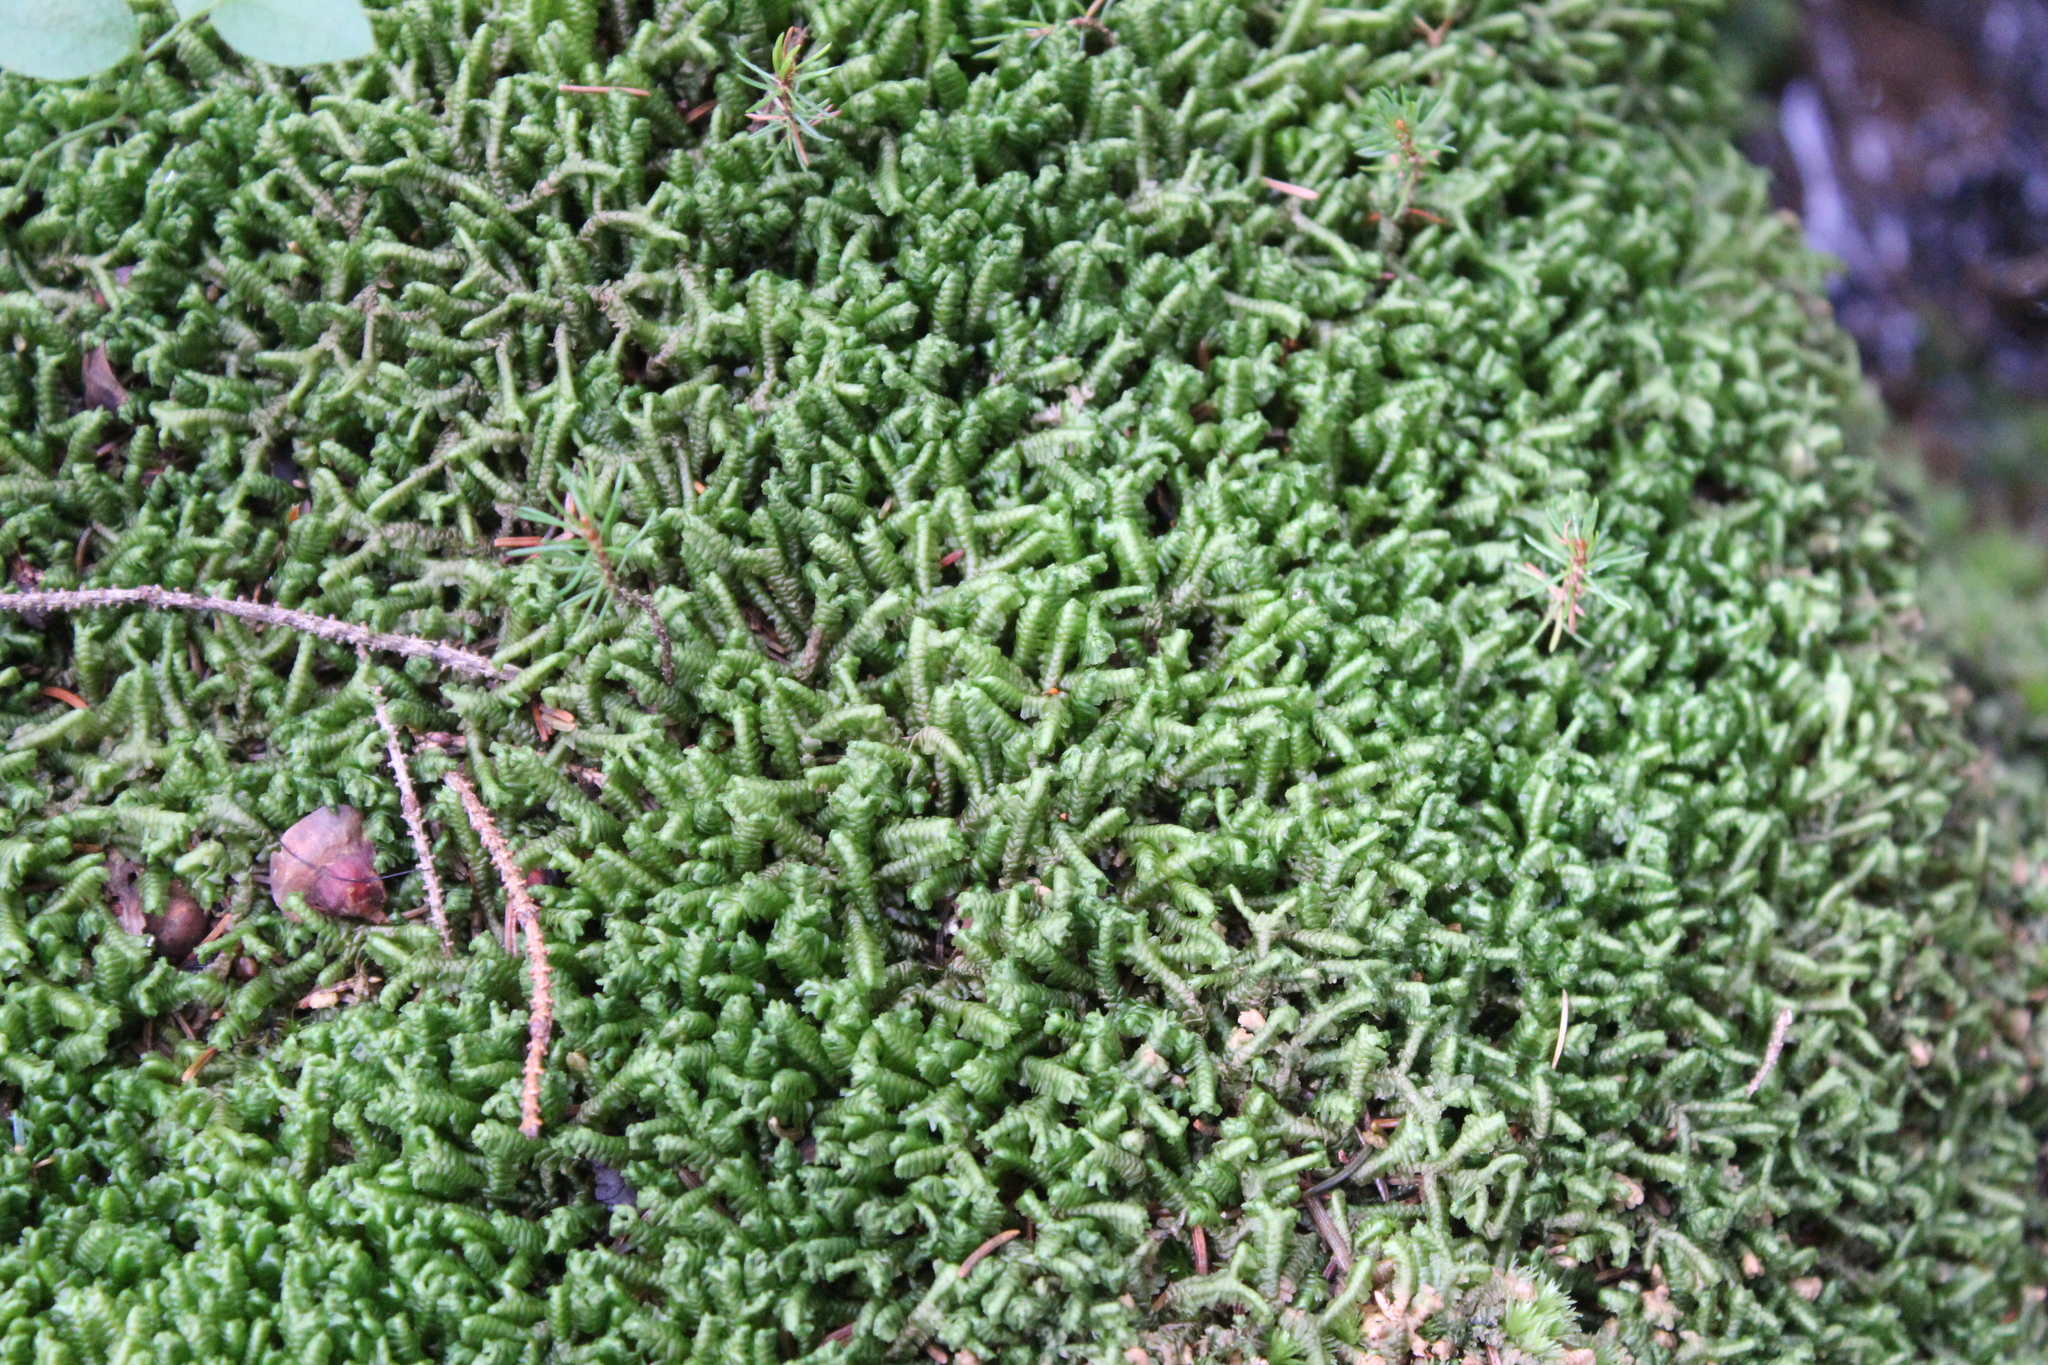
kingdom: Plantae
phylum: Marchantiophyta
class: Jungermanniopsida
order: Jungermanniales
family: Lepidoziaceae
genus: Bazzania
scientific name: Bazzania trilobata
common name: Three-lobed whipwort
